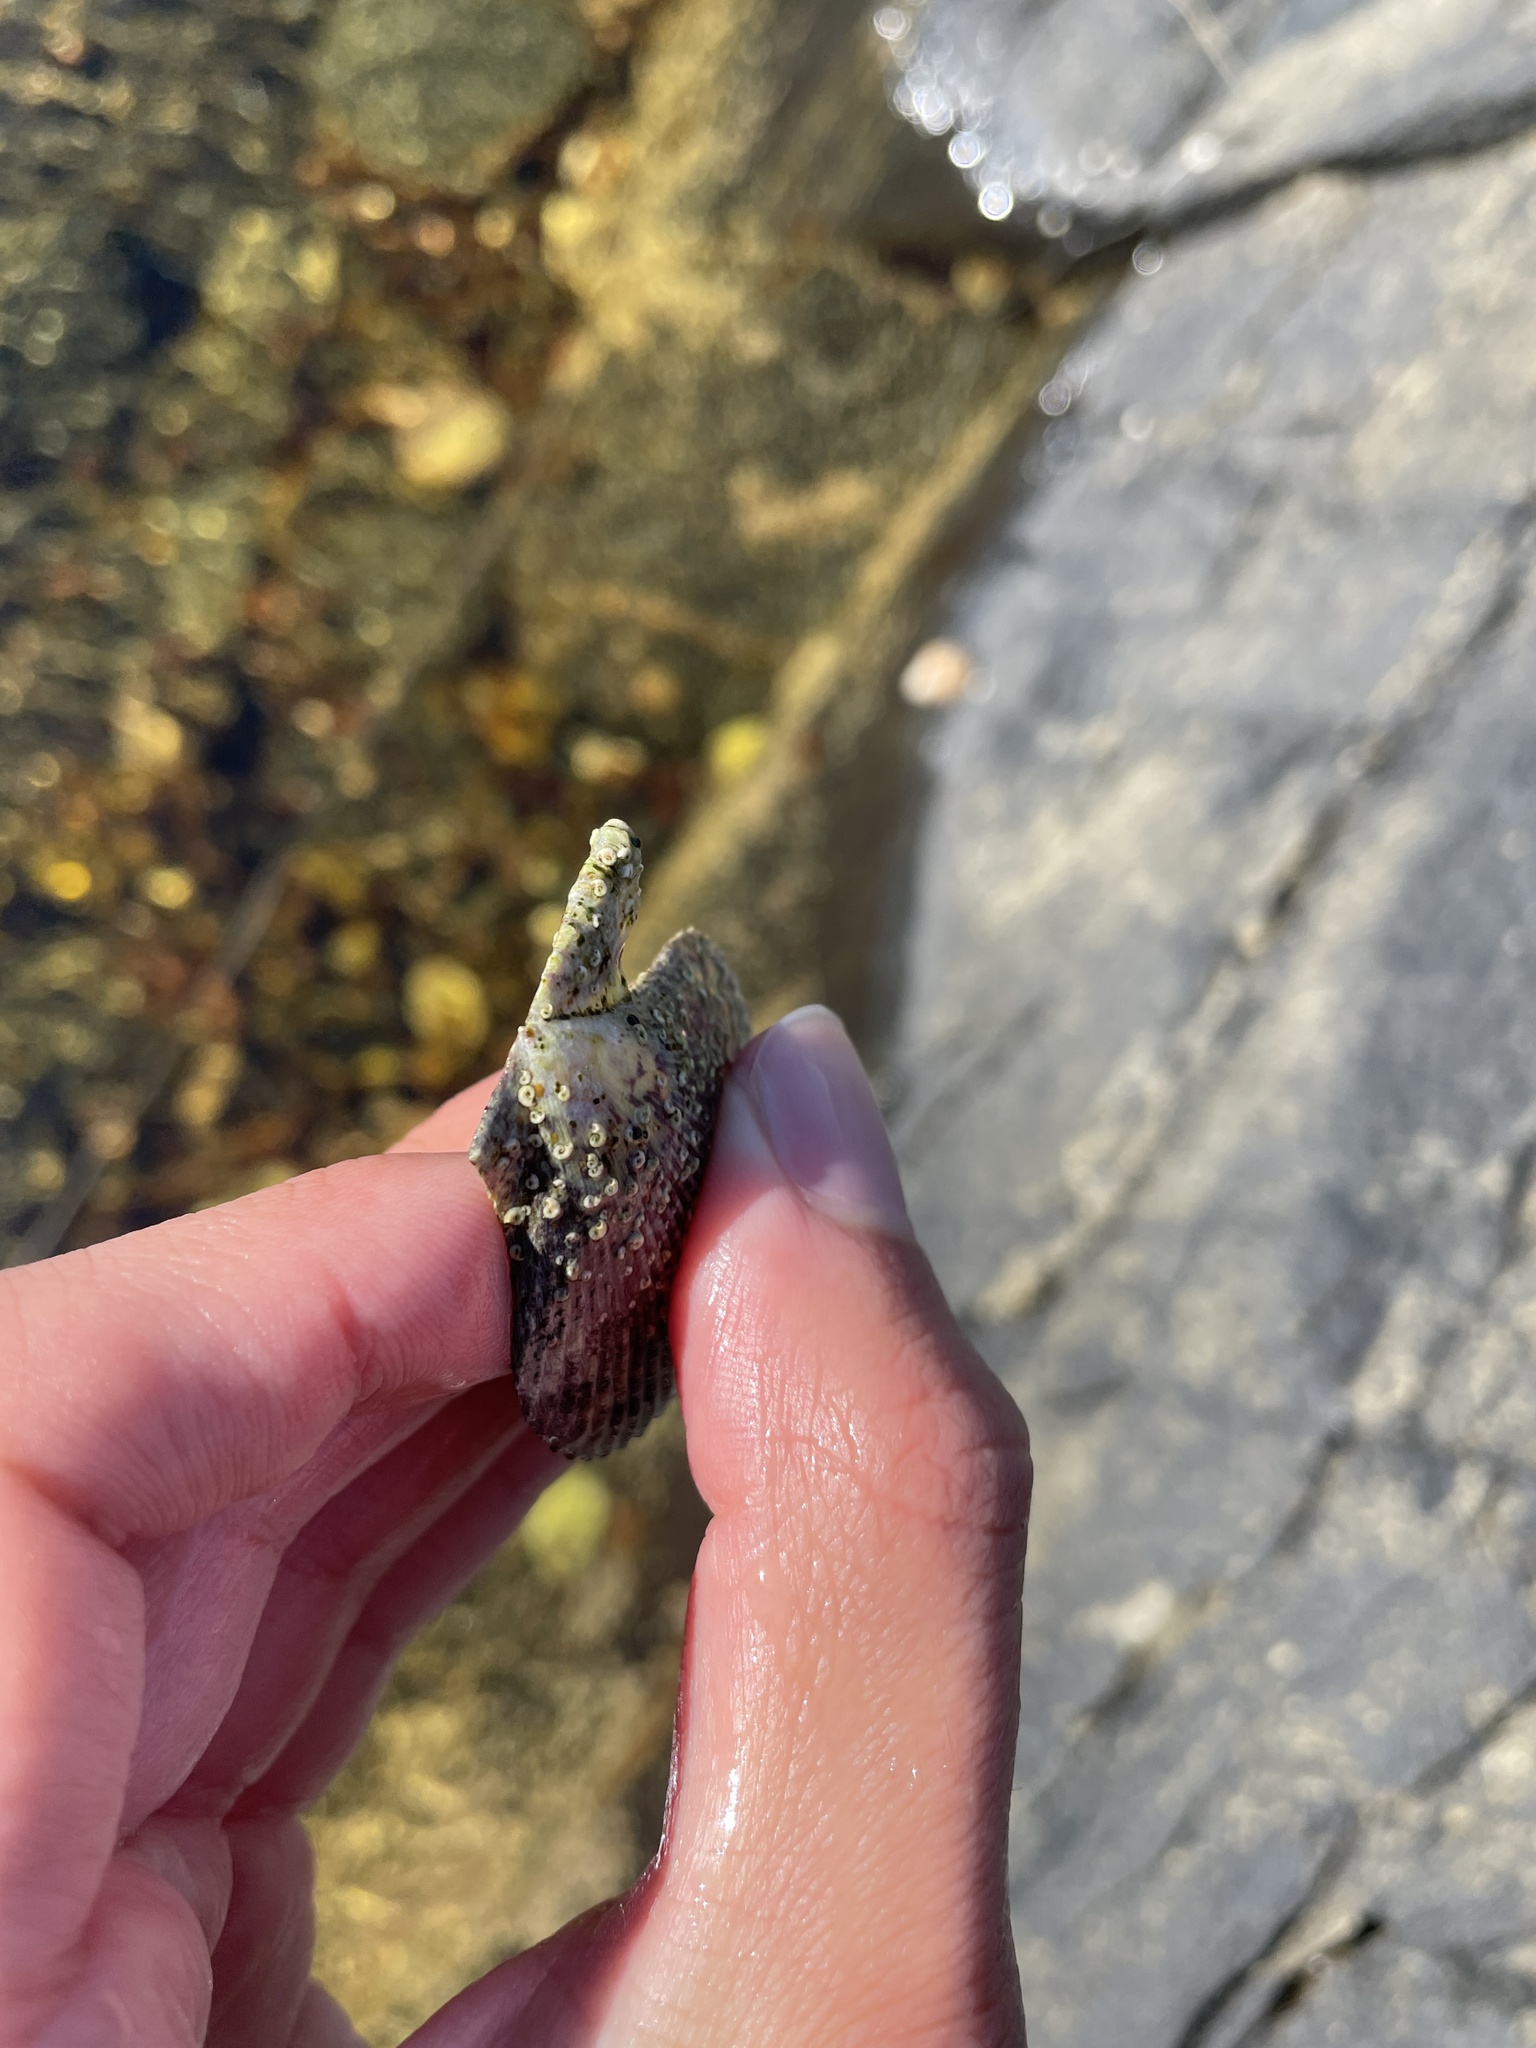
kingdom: Animalia
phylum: Mollusca
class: Bivalvia
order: Pectinida
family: Pectinidae
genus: Mimachlamys
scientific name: Mimachlamys varia
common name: Variegated scallop
